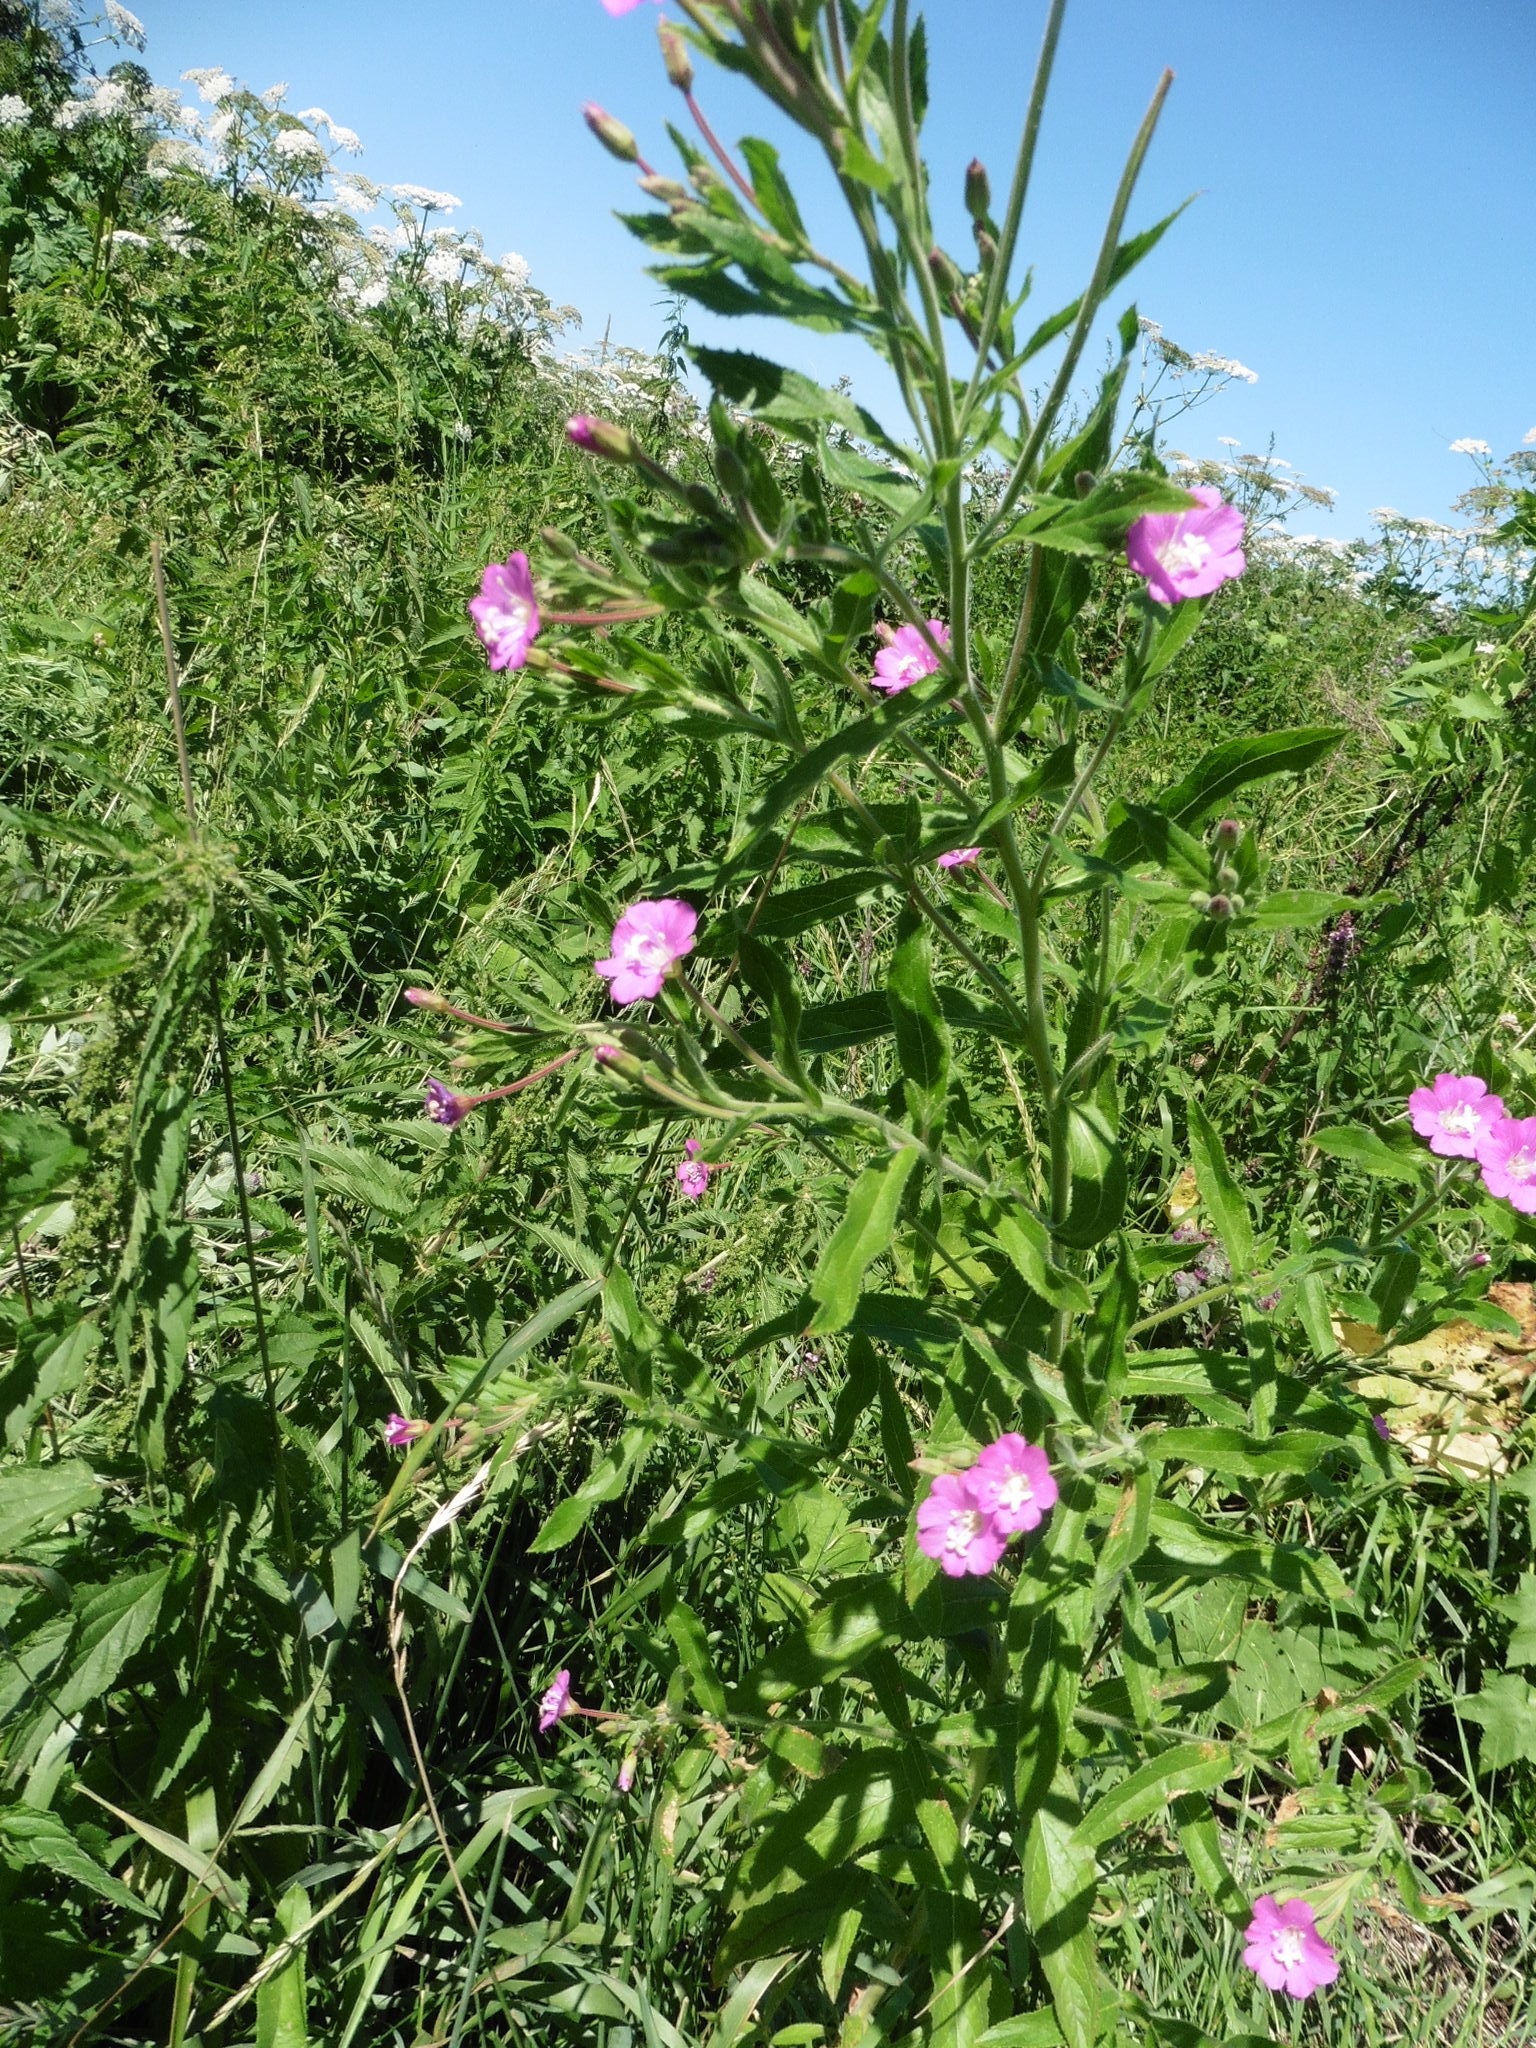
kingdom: Plantae
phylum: Tracheophyta
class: Magnoliopsida
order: Myrtales
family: Onagraceae
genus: Epilobium
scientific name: Epilobium hirsutum
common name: Great willowherb
